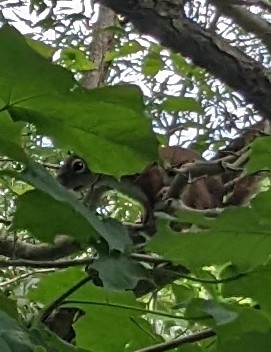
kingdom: Animalia
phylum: Chordata
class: Mammalia
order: Rodentia
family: Sciuridae
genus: Tamiasciurus
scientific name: Tamiasciurus hudsonicus
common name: Red squirrel
